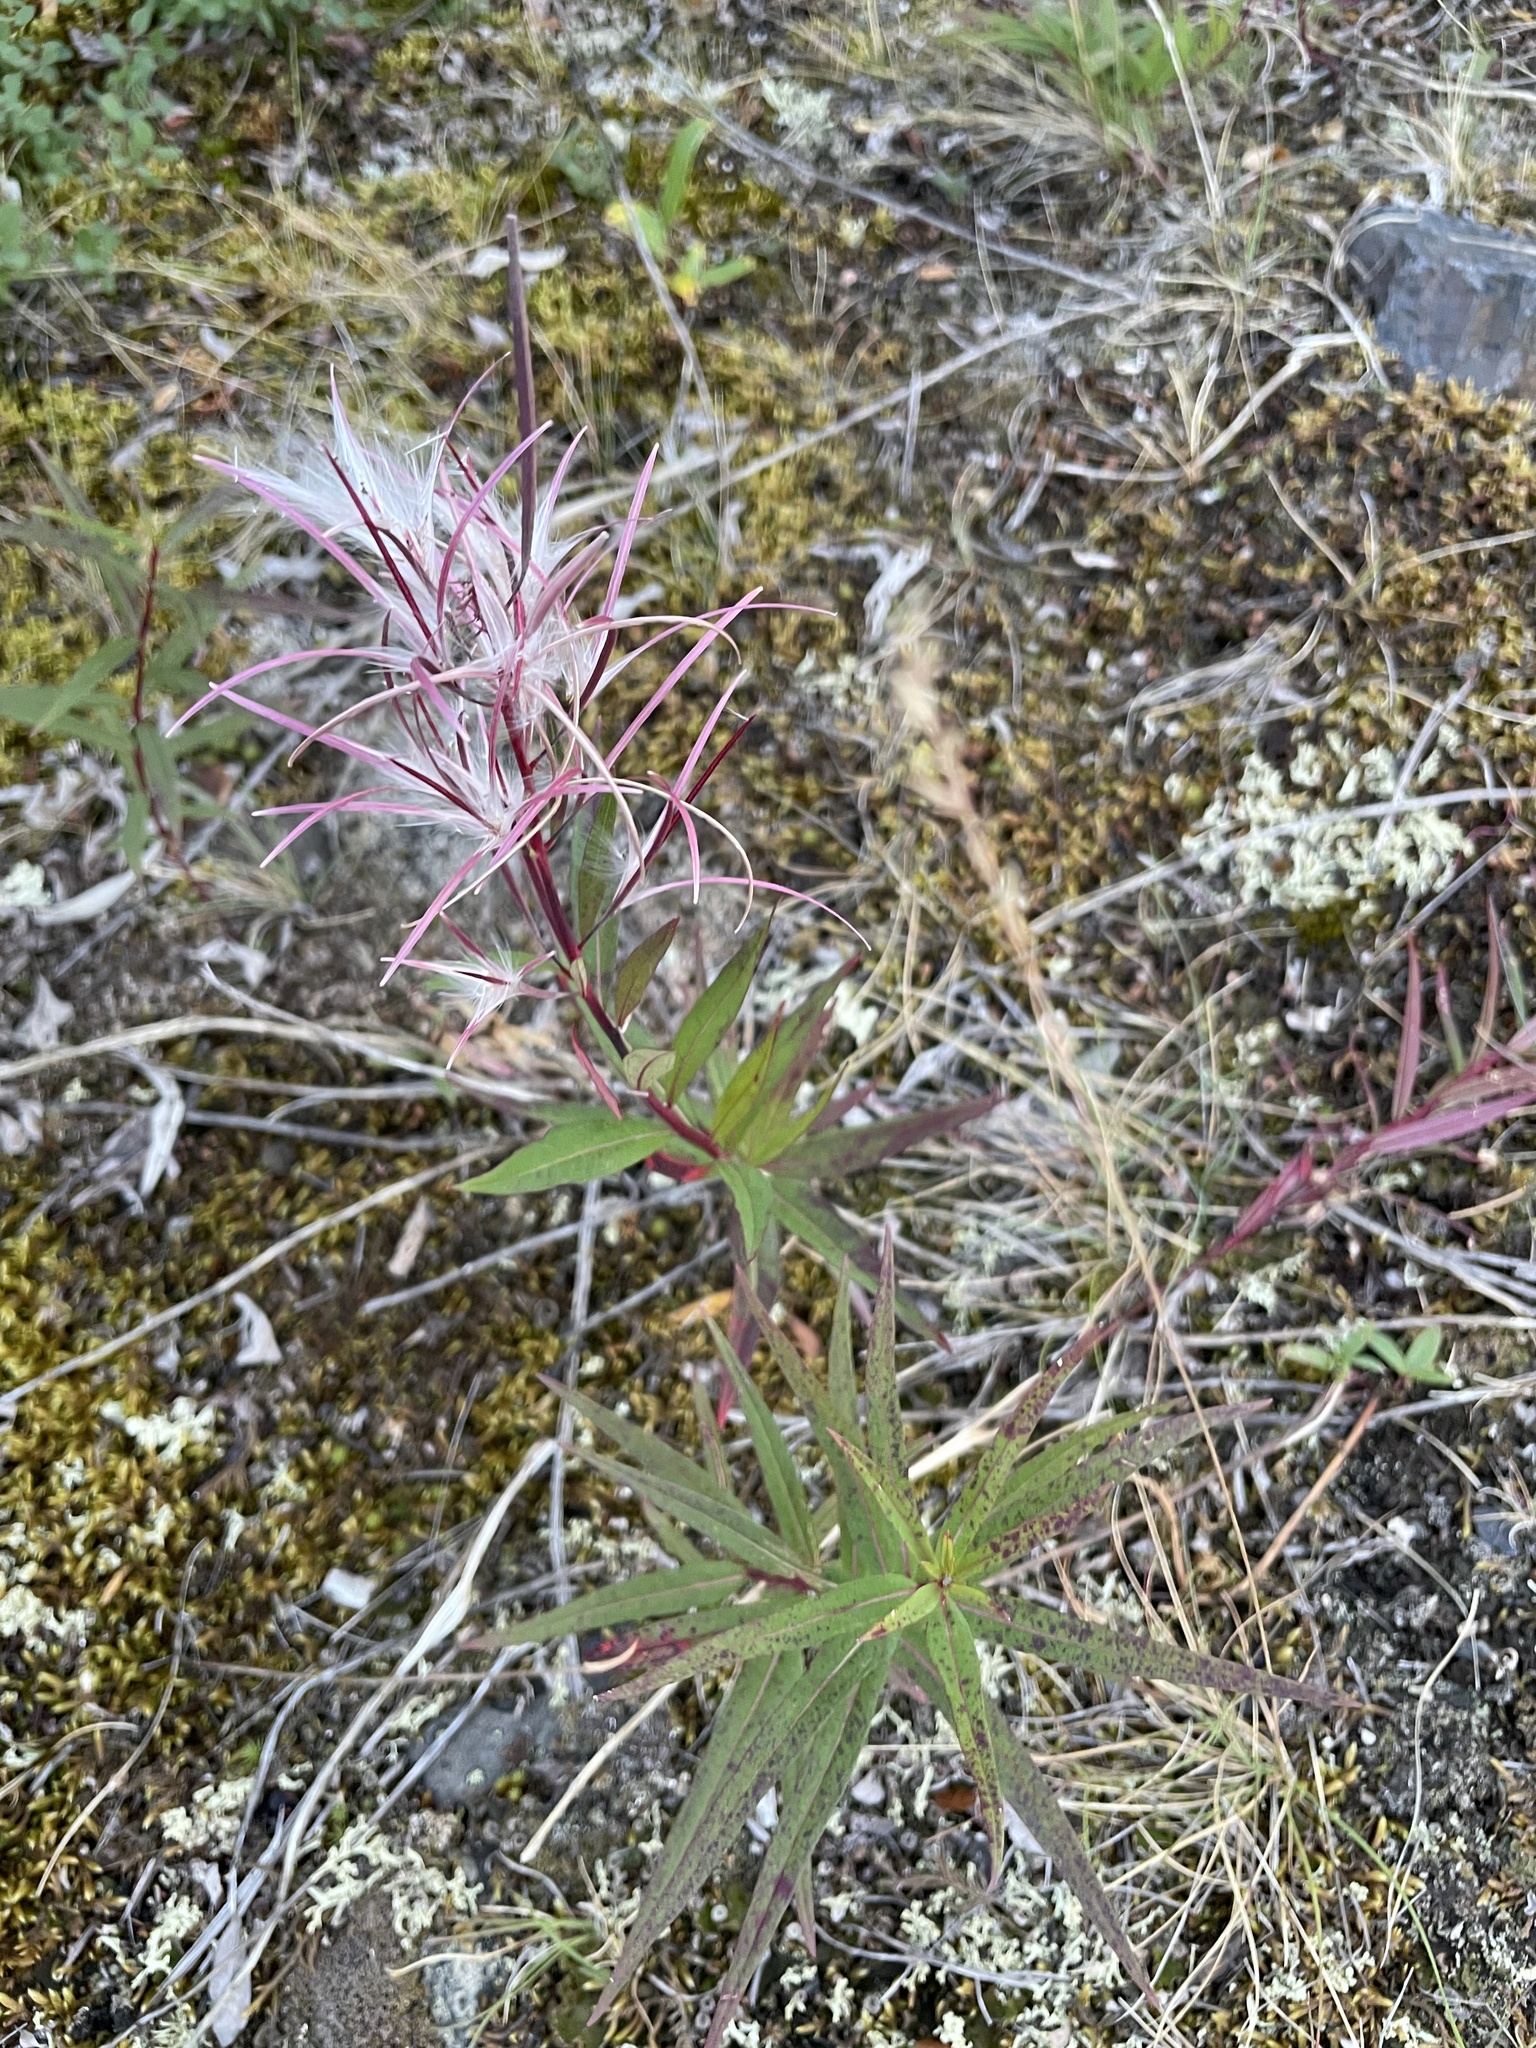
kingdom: Plantae
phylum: Tracheophyta
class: Magnoliopsida
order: Myrtales
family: Onagraceae
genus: Chamaenerion
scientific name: Chamaenerion angustifolium
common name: Fireweed
